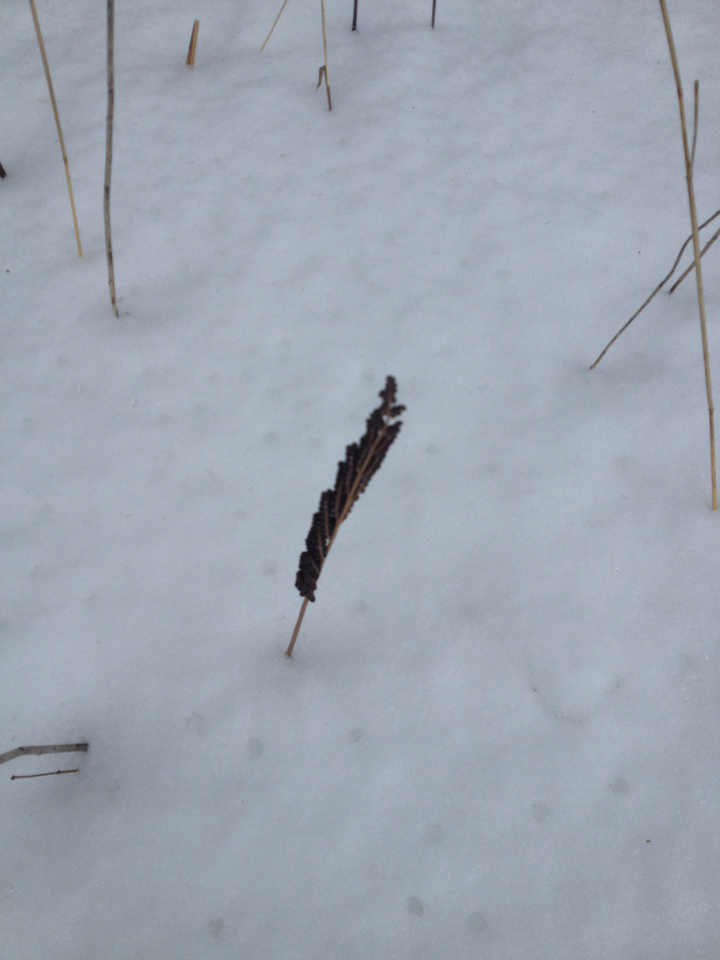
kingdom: Plantae
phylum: Tracheophyta
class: Polypodiopsida
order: Polypodiales
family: Onocleaceae
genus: Onoclea
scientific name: Onoclea sensibilis
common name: Sensitive fern
